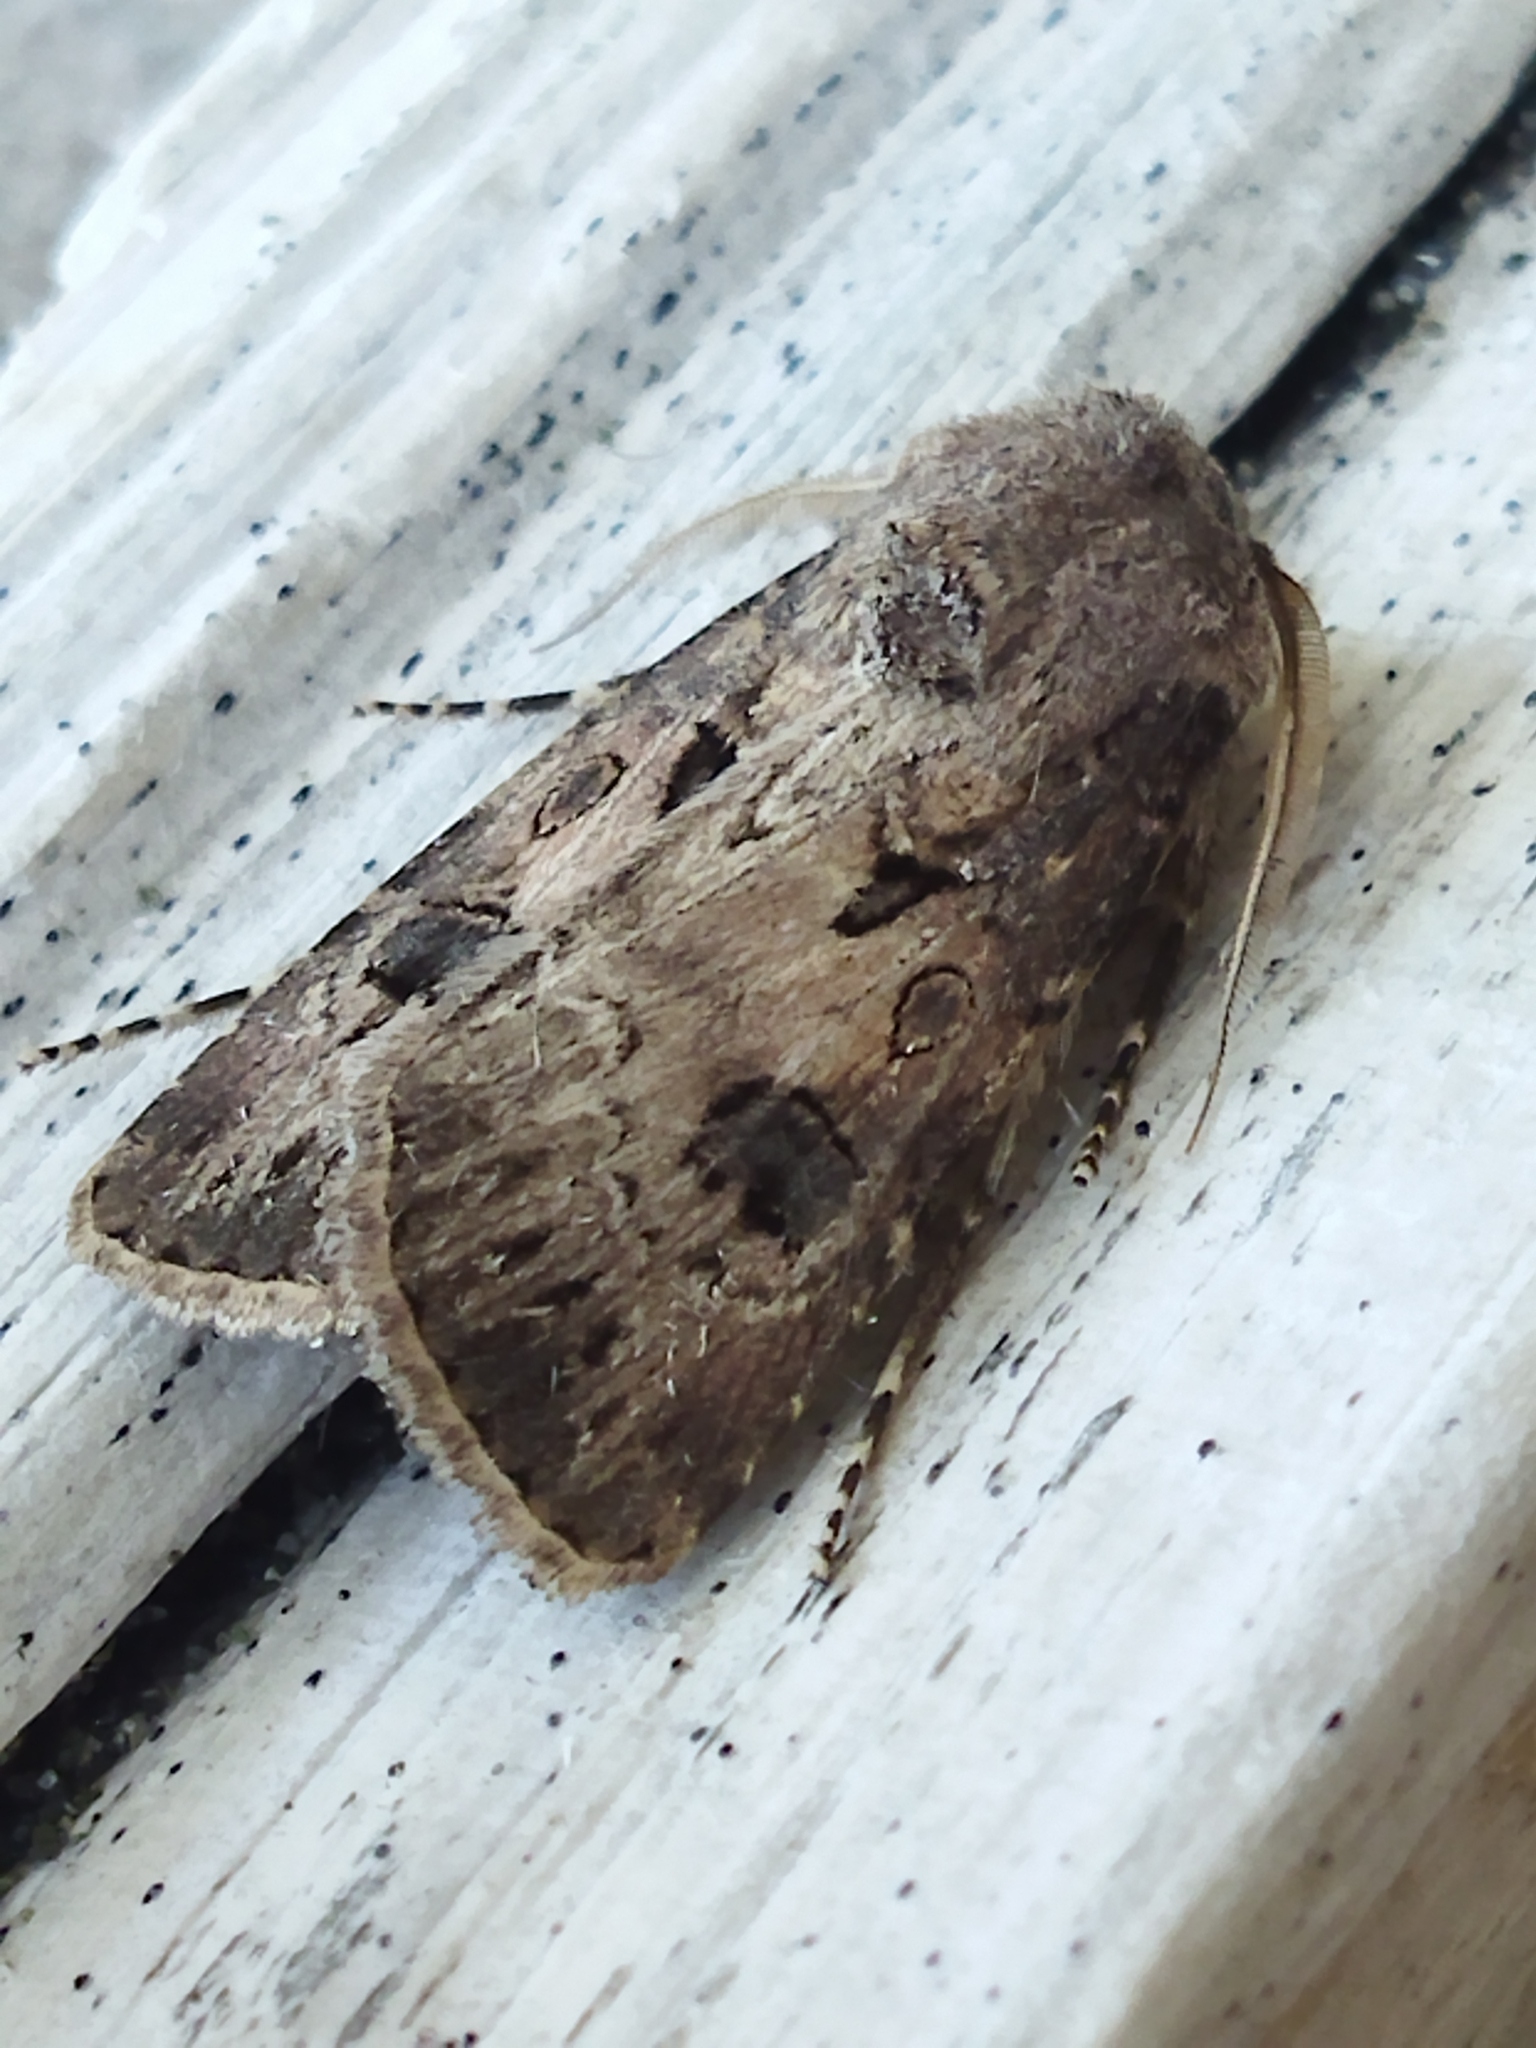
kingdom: Animalia
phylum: Arthropoda
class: Insecta
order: Lepidoptera
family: Noctuidae
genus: Agrotis
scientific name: Agrotis bigramma
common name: Great dart
